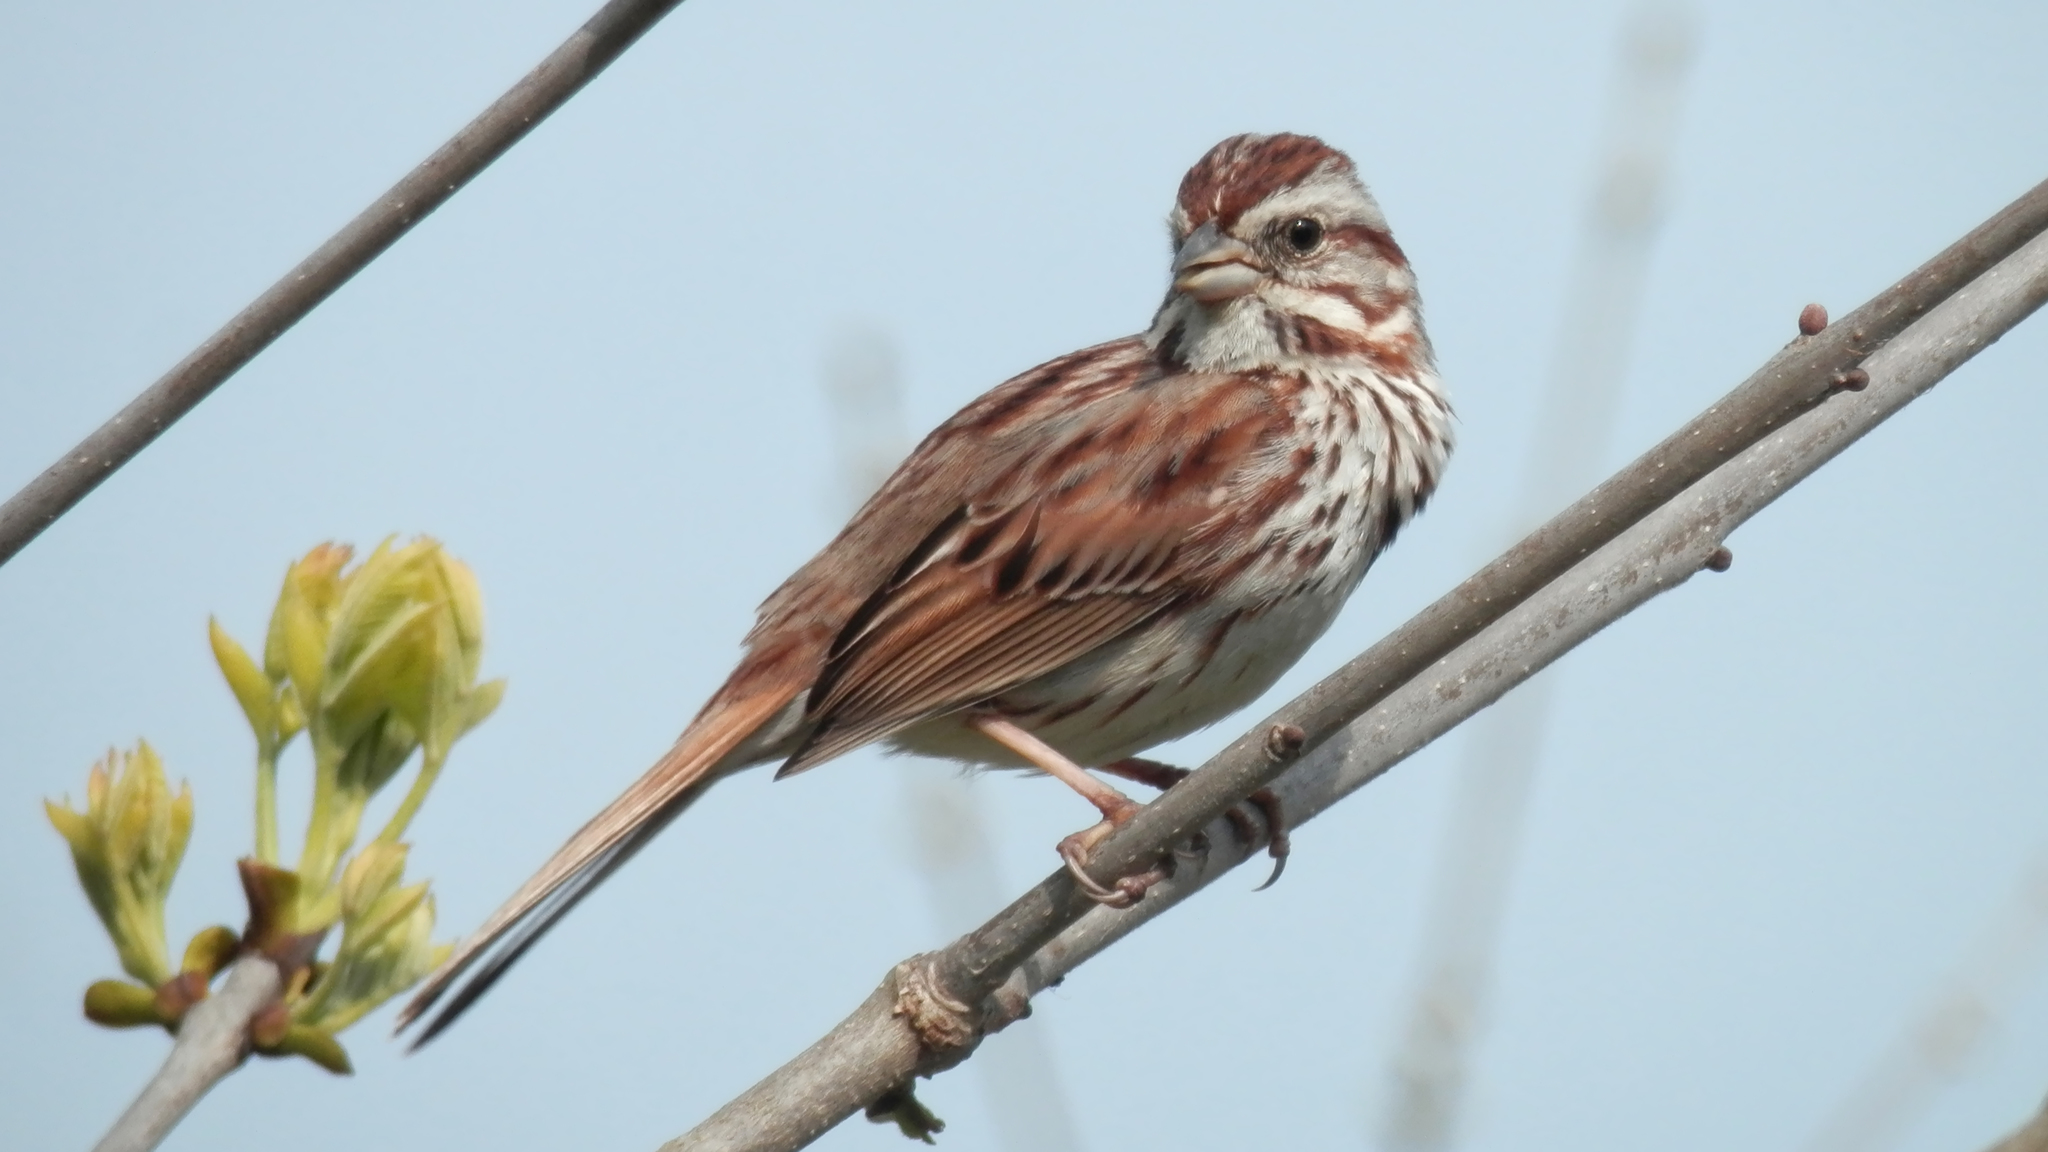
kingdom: Animalia
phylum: Chordata
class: Aves
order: Passeriformes
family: Passerellidae
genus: Melospiza
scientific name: Melospiza melodia
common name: Song sparrow
